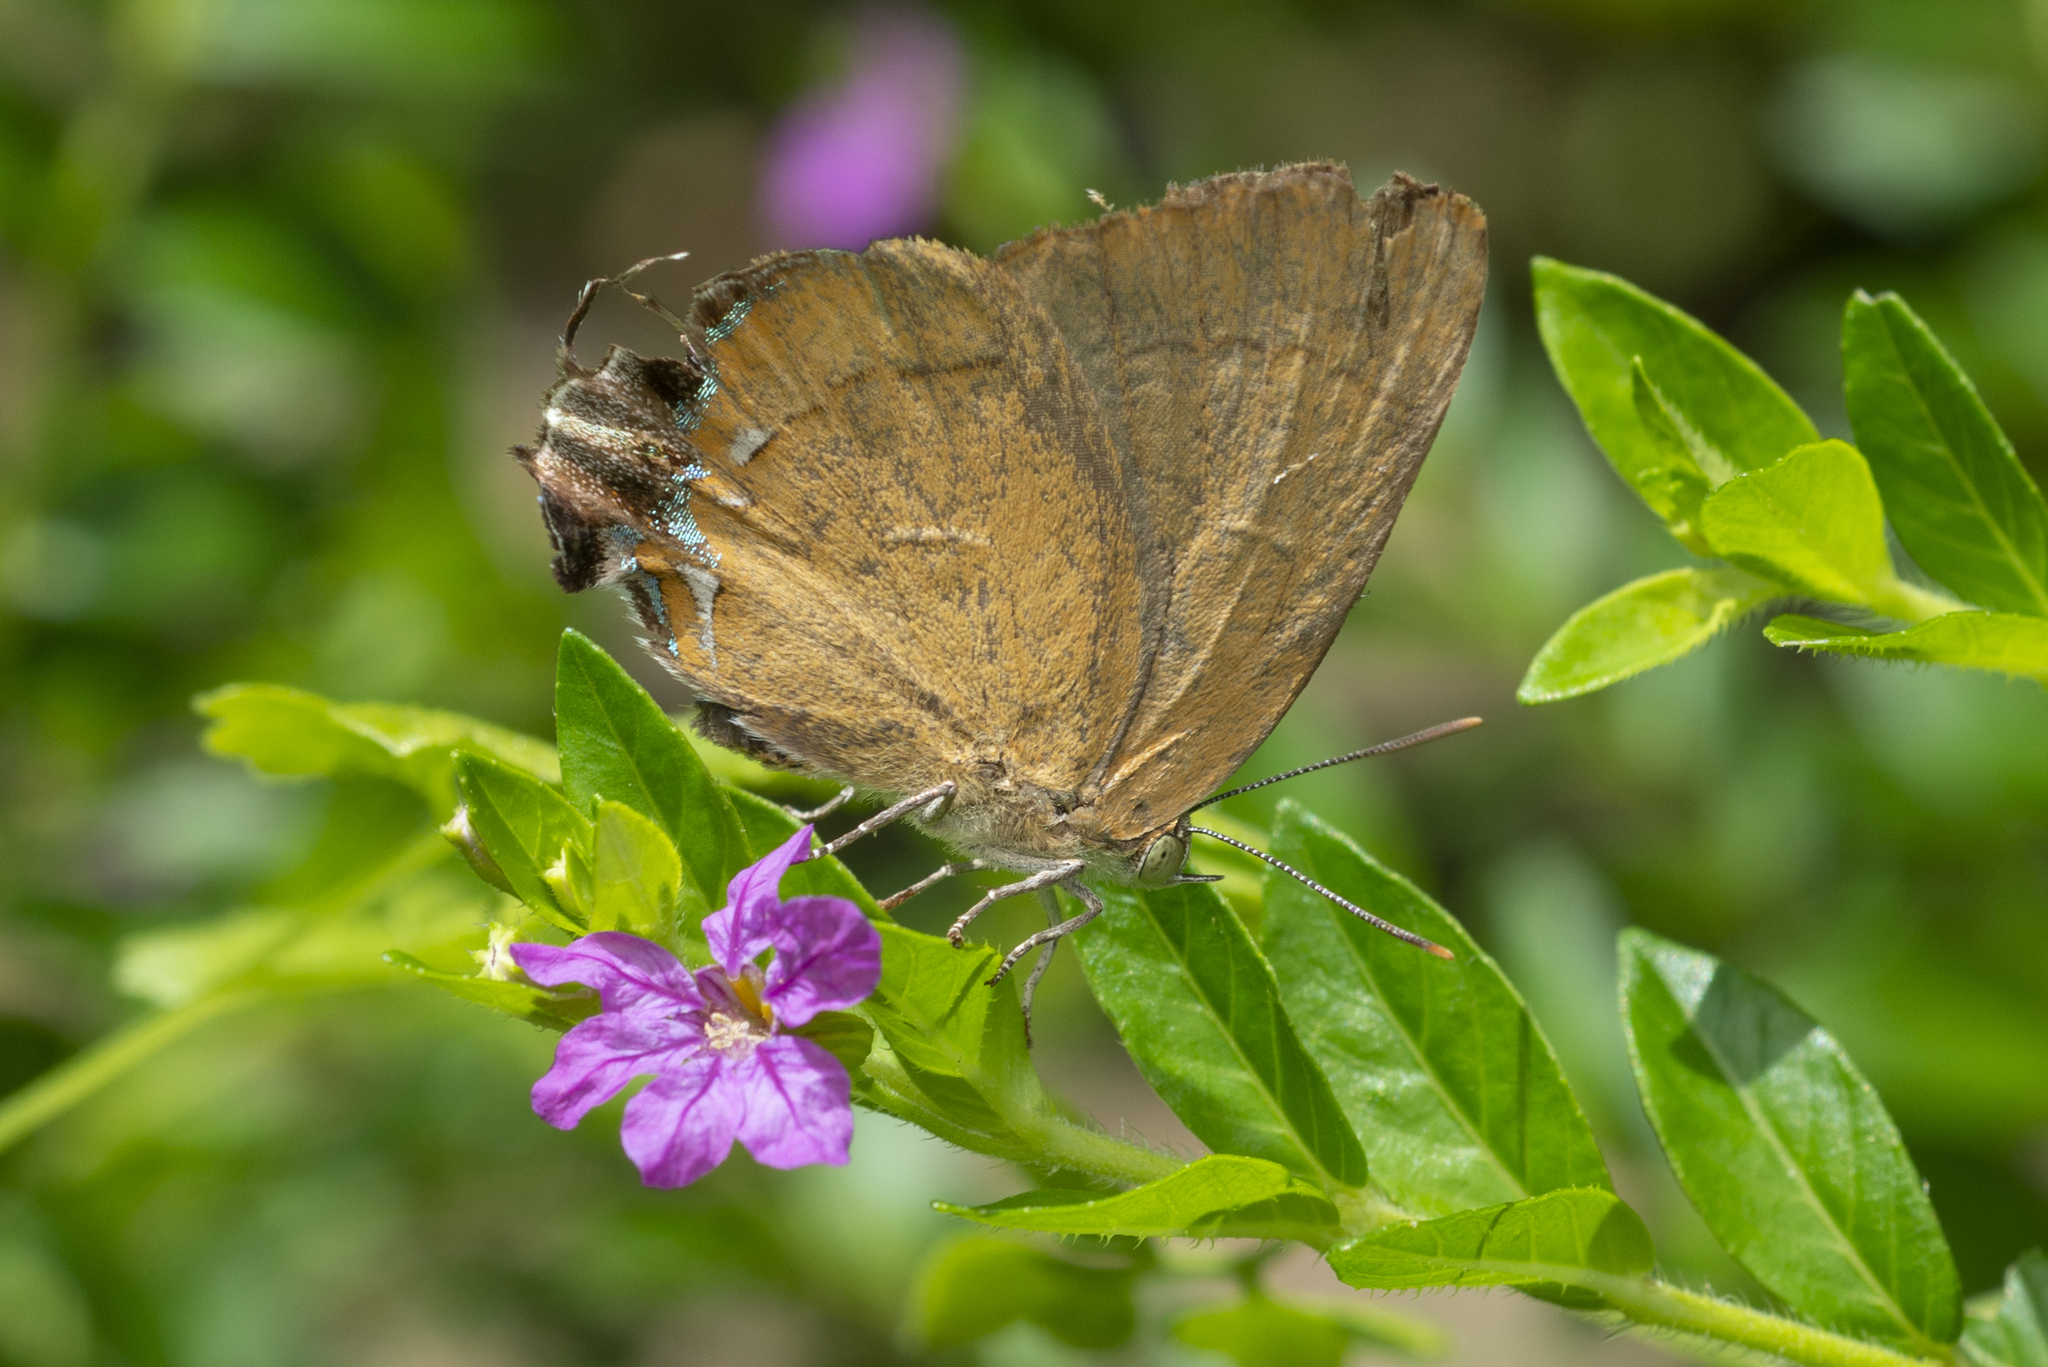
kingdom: Animalia
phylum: Arthropoda
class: Insecta
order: Lepidoptera
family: Lycaenidae
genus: Remelana
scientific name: Remelana jangala
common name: Chocolate royal
